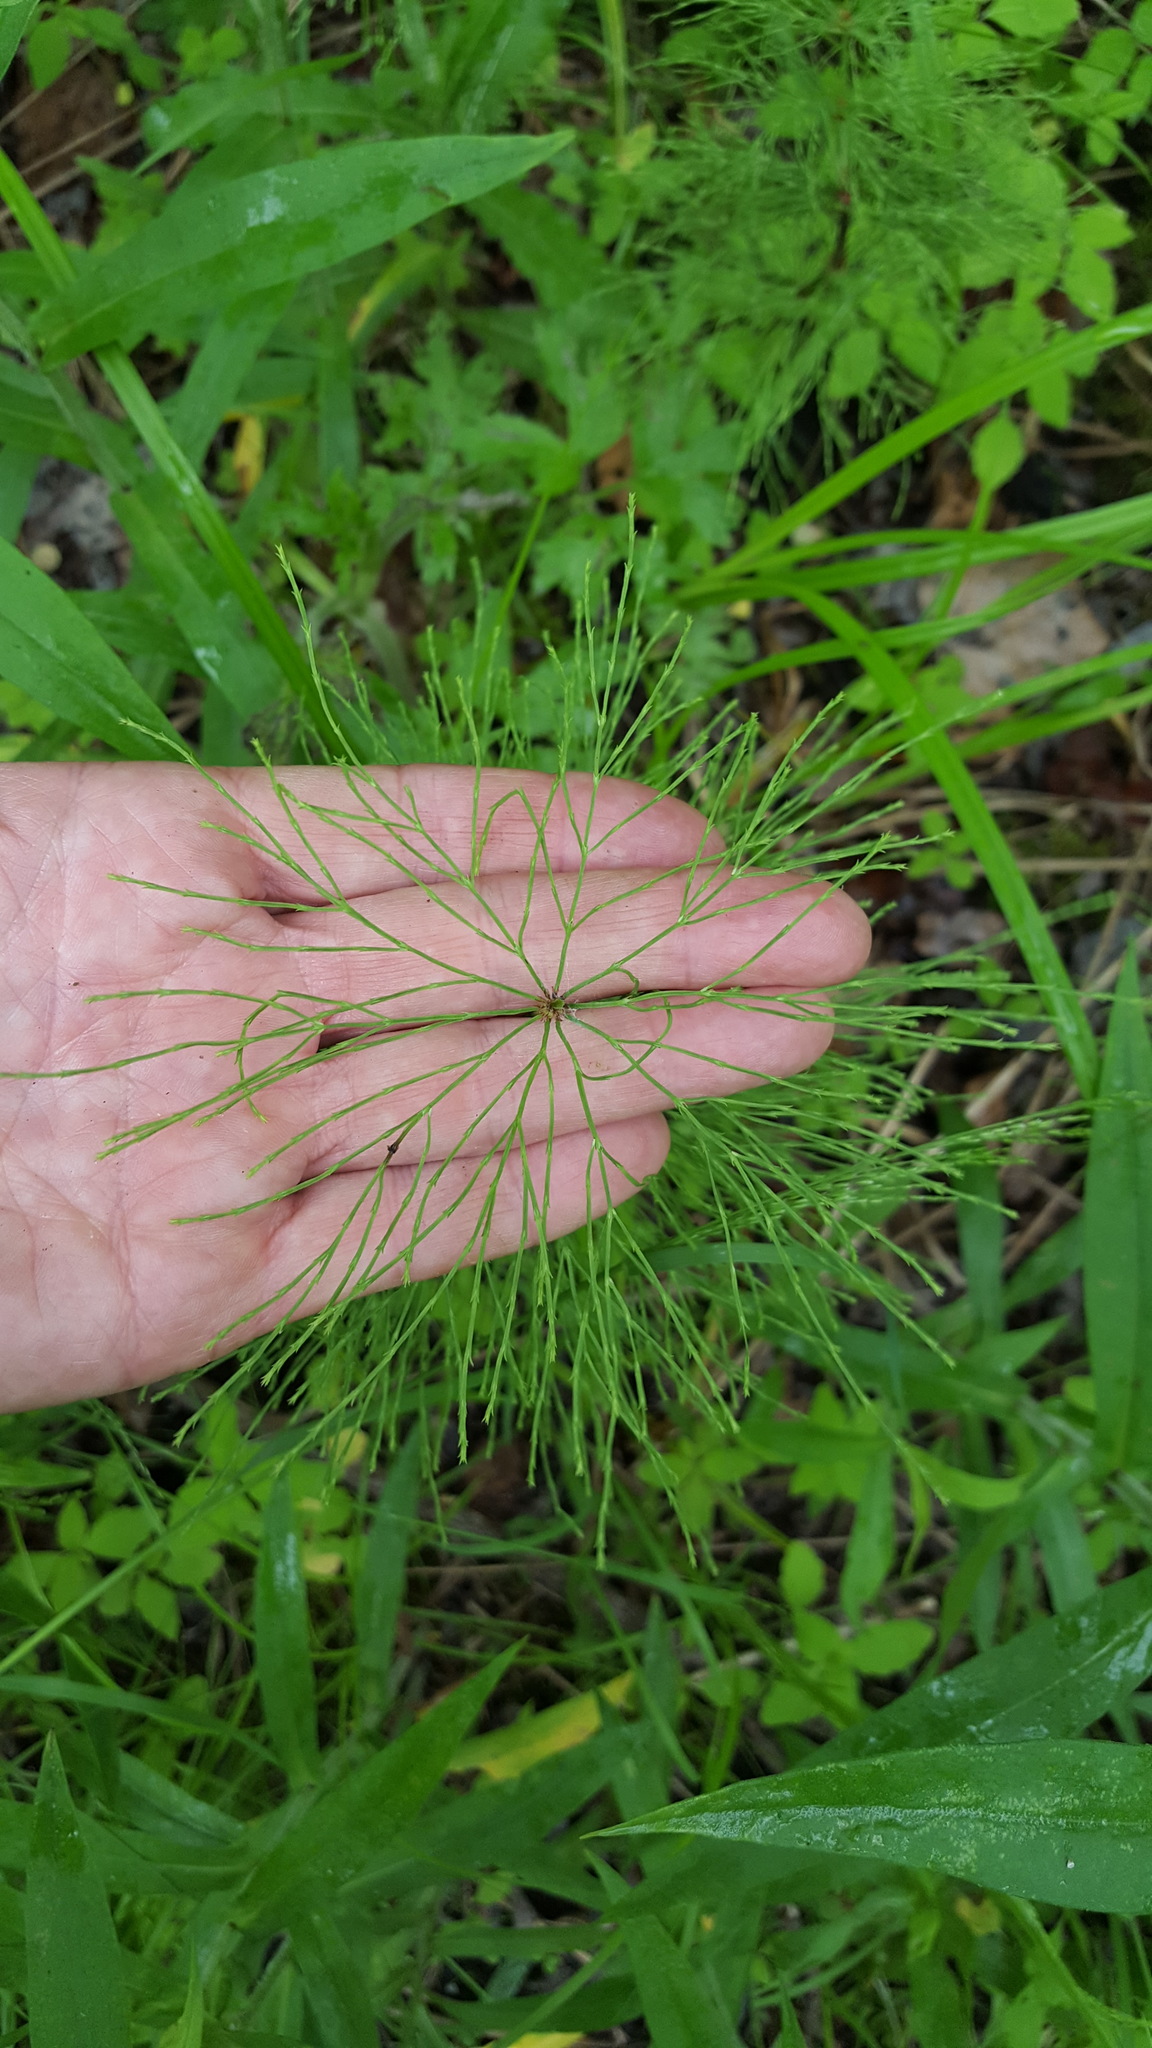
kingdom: Plantae
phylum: Tracheophyta
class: Polypodiopsida
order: Equisetales
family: Equisetaceae
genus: Equisetum
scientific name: Equisetum sylvaticum
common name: Wood horsetail
